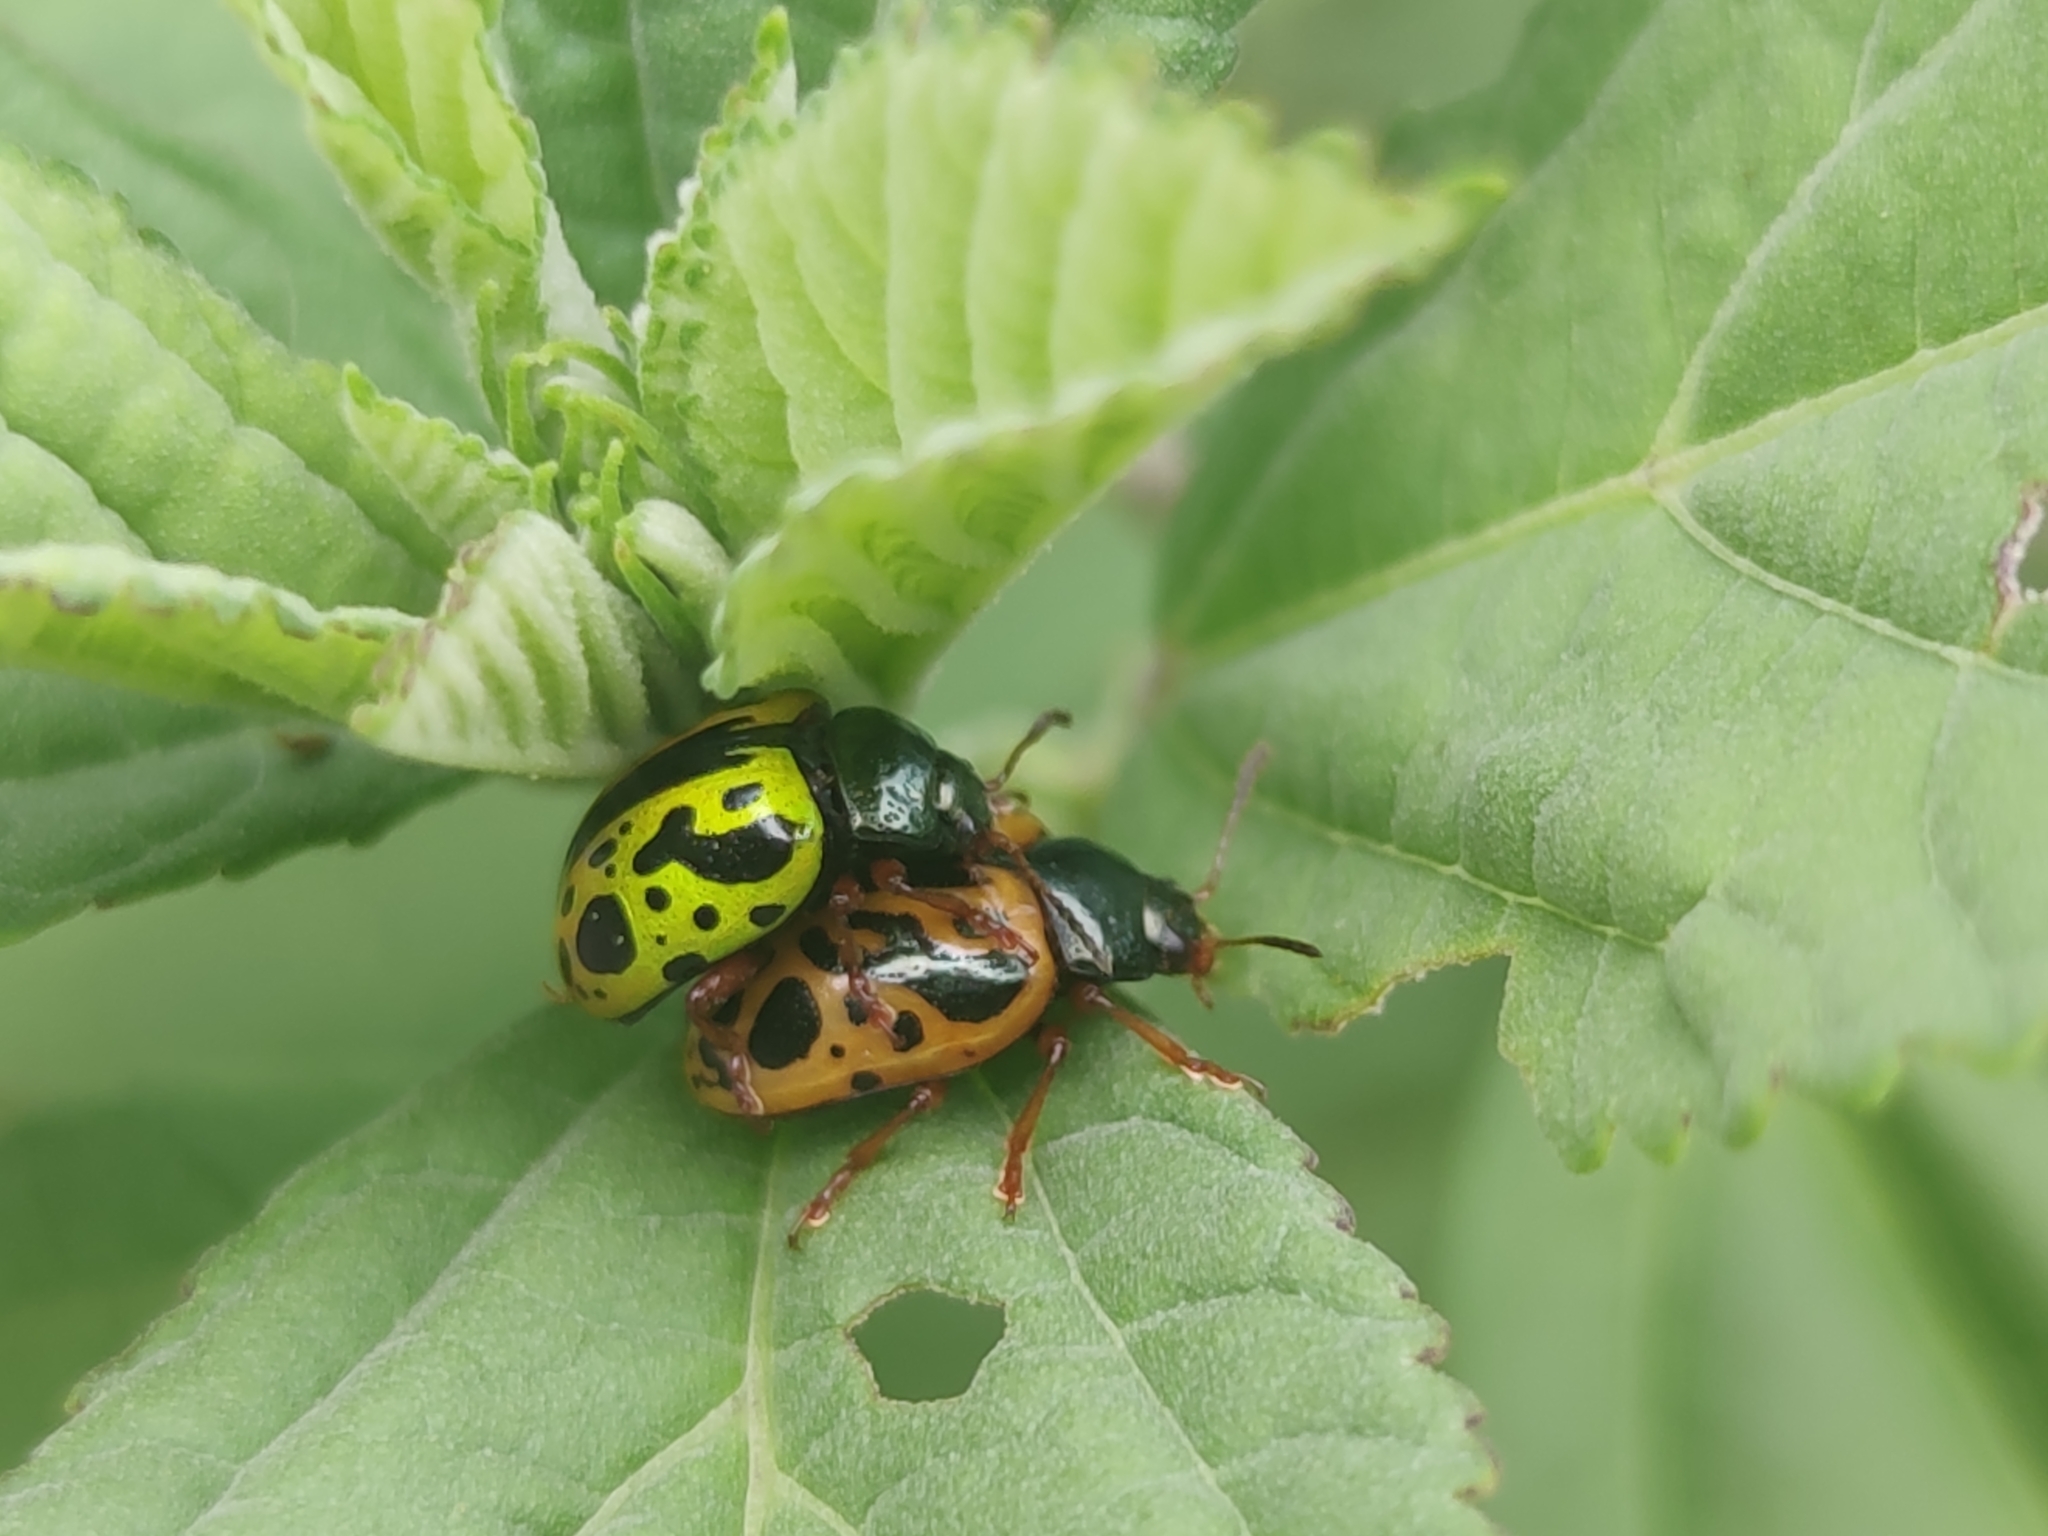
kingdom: Animalia
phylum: Arthropoda
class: Insecta
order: Coleoptera
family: Chrysomelidae
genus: Calligrapha
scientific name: Calligrapha fulvipes
